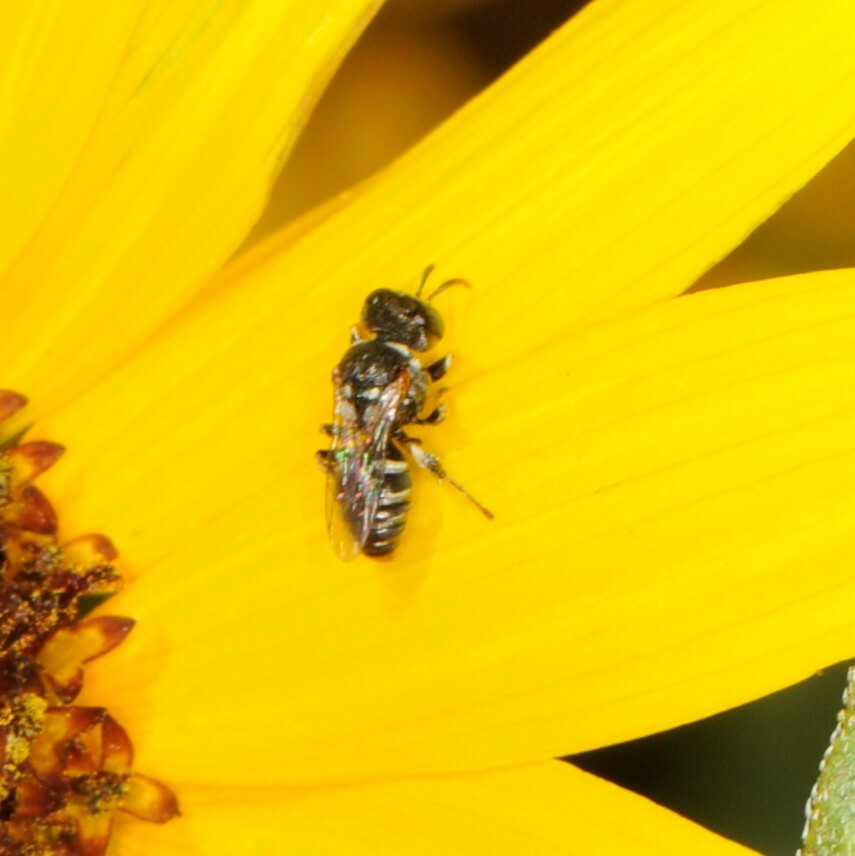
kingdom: Animalia
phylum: Arthropoda
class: Insecta
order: Hymenoptera
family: Crabronidae
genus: Oxybelus
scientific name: Oxybelus
